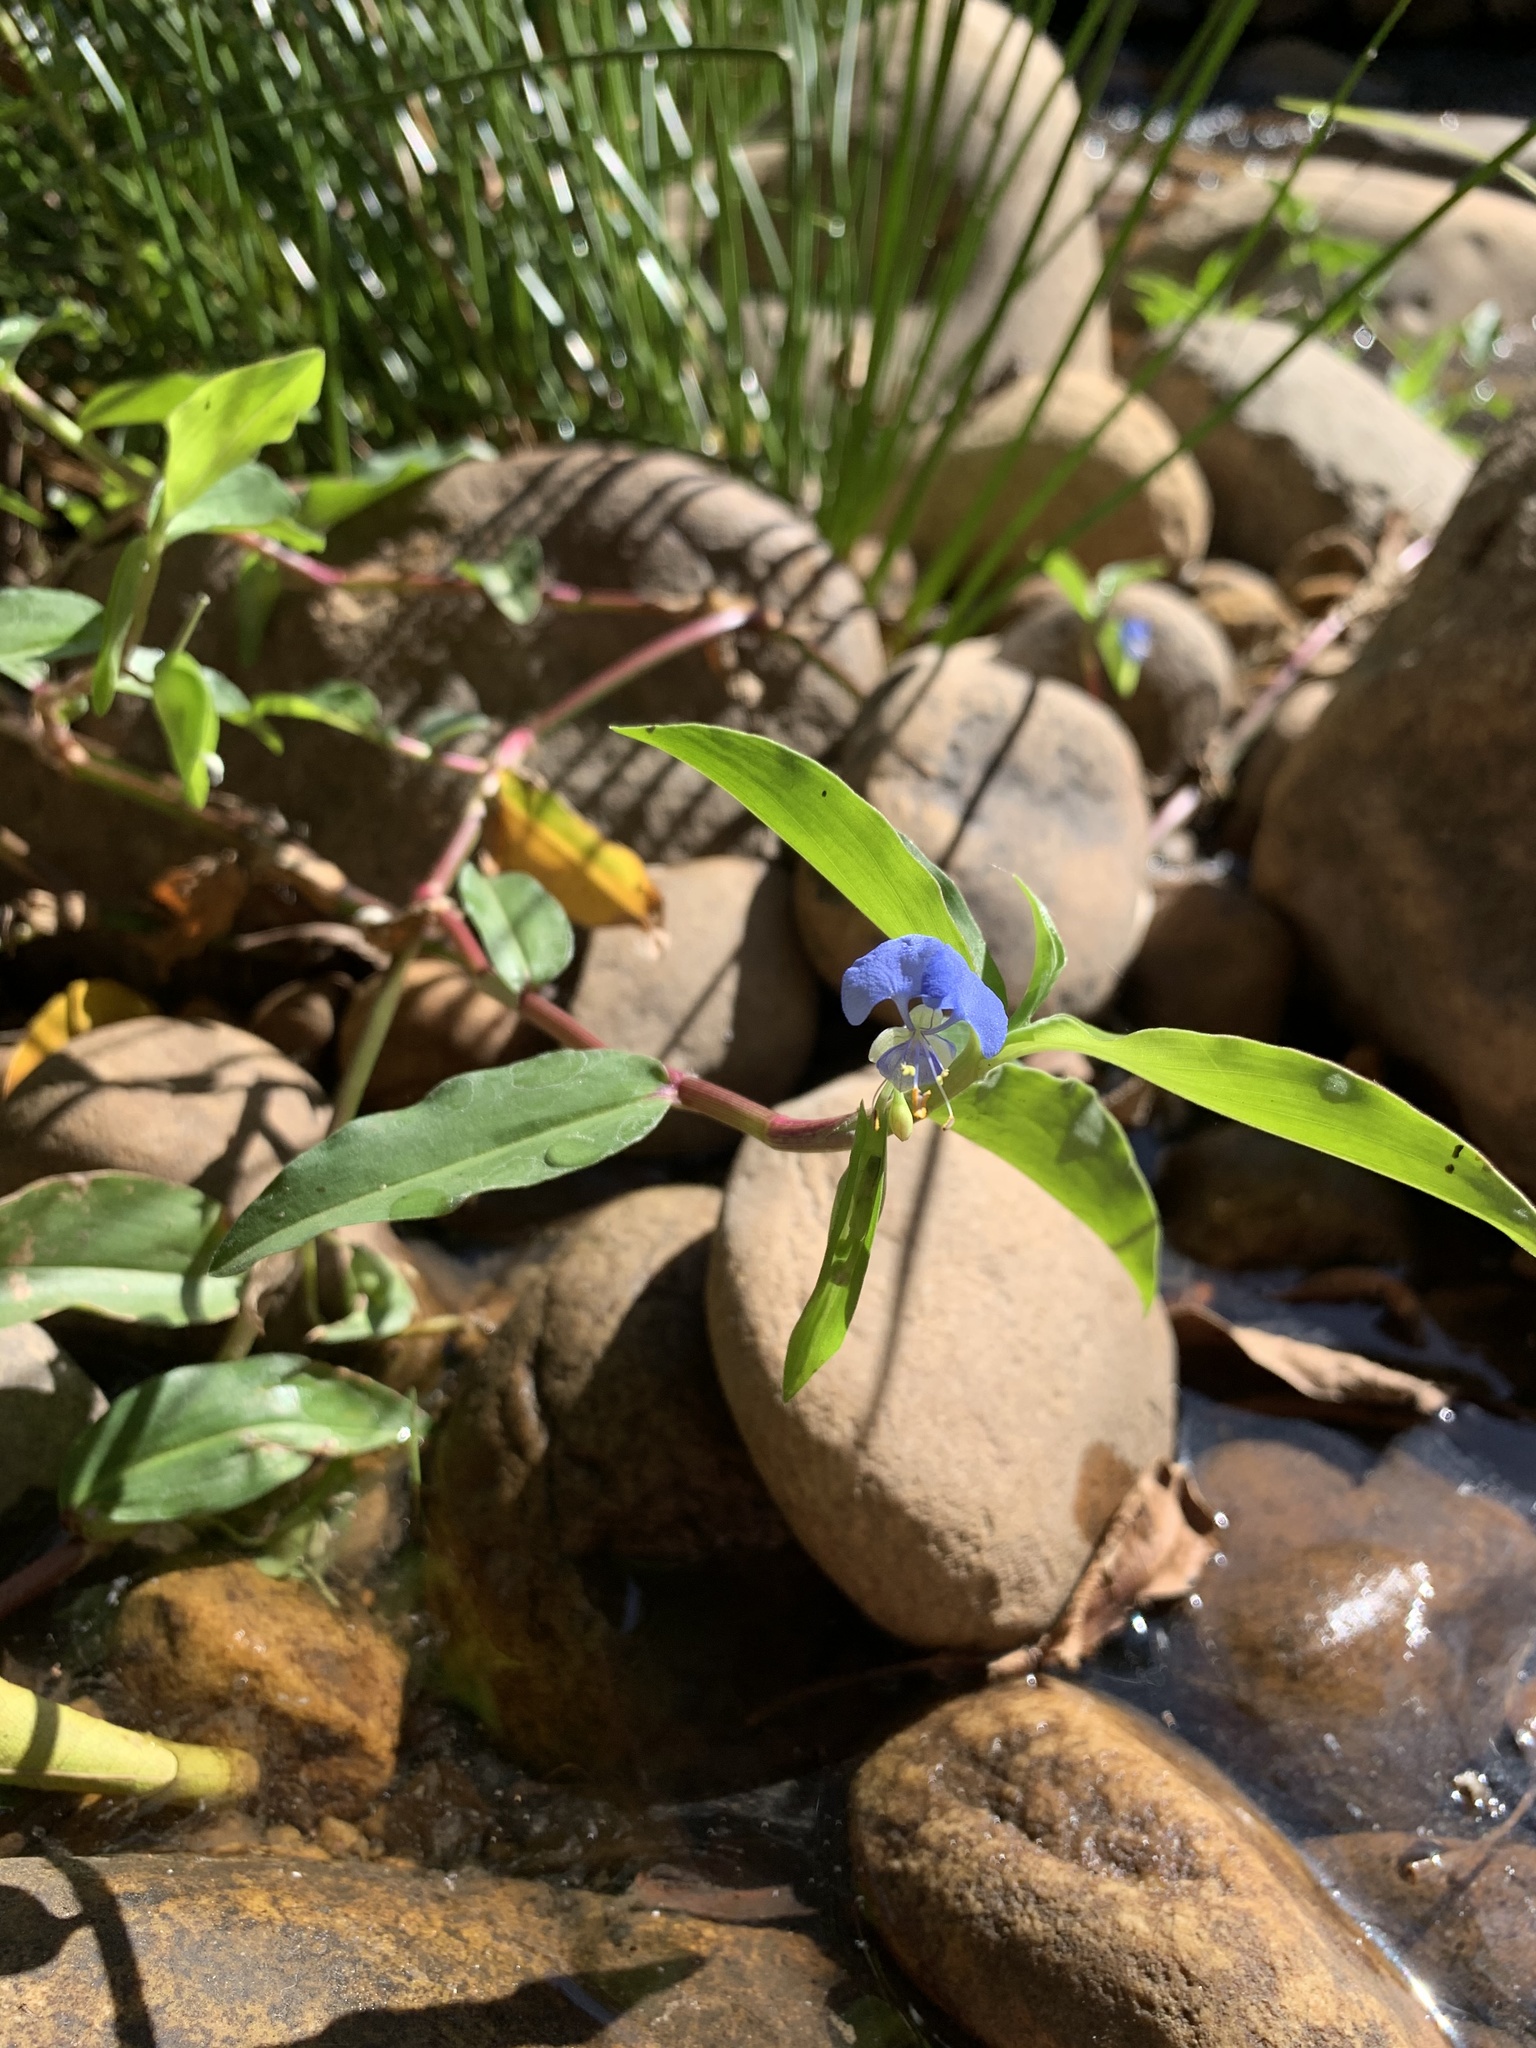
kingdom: Plantae
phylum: Tracheophyta
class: Liliopsida
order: Commelinales
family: Commelinaceae
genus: Commelina
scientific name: Commelina diffusa
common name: Climbing dayflower
